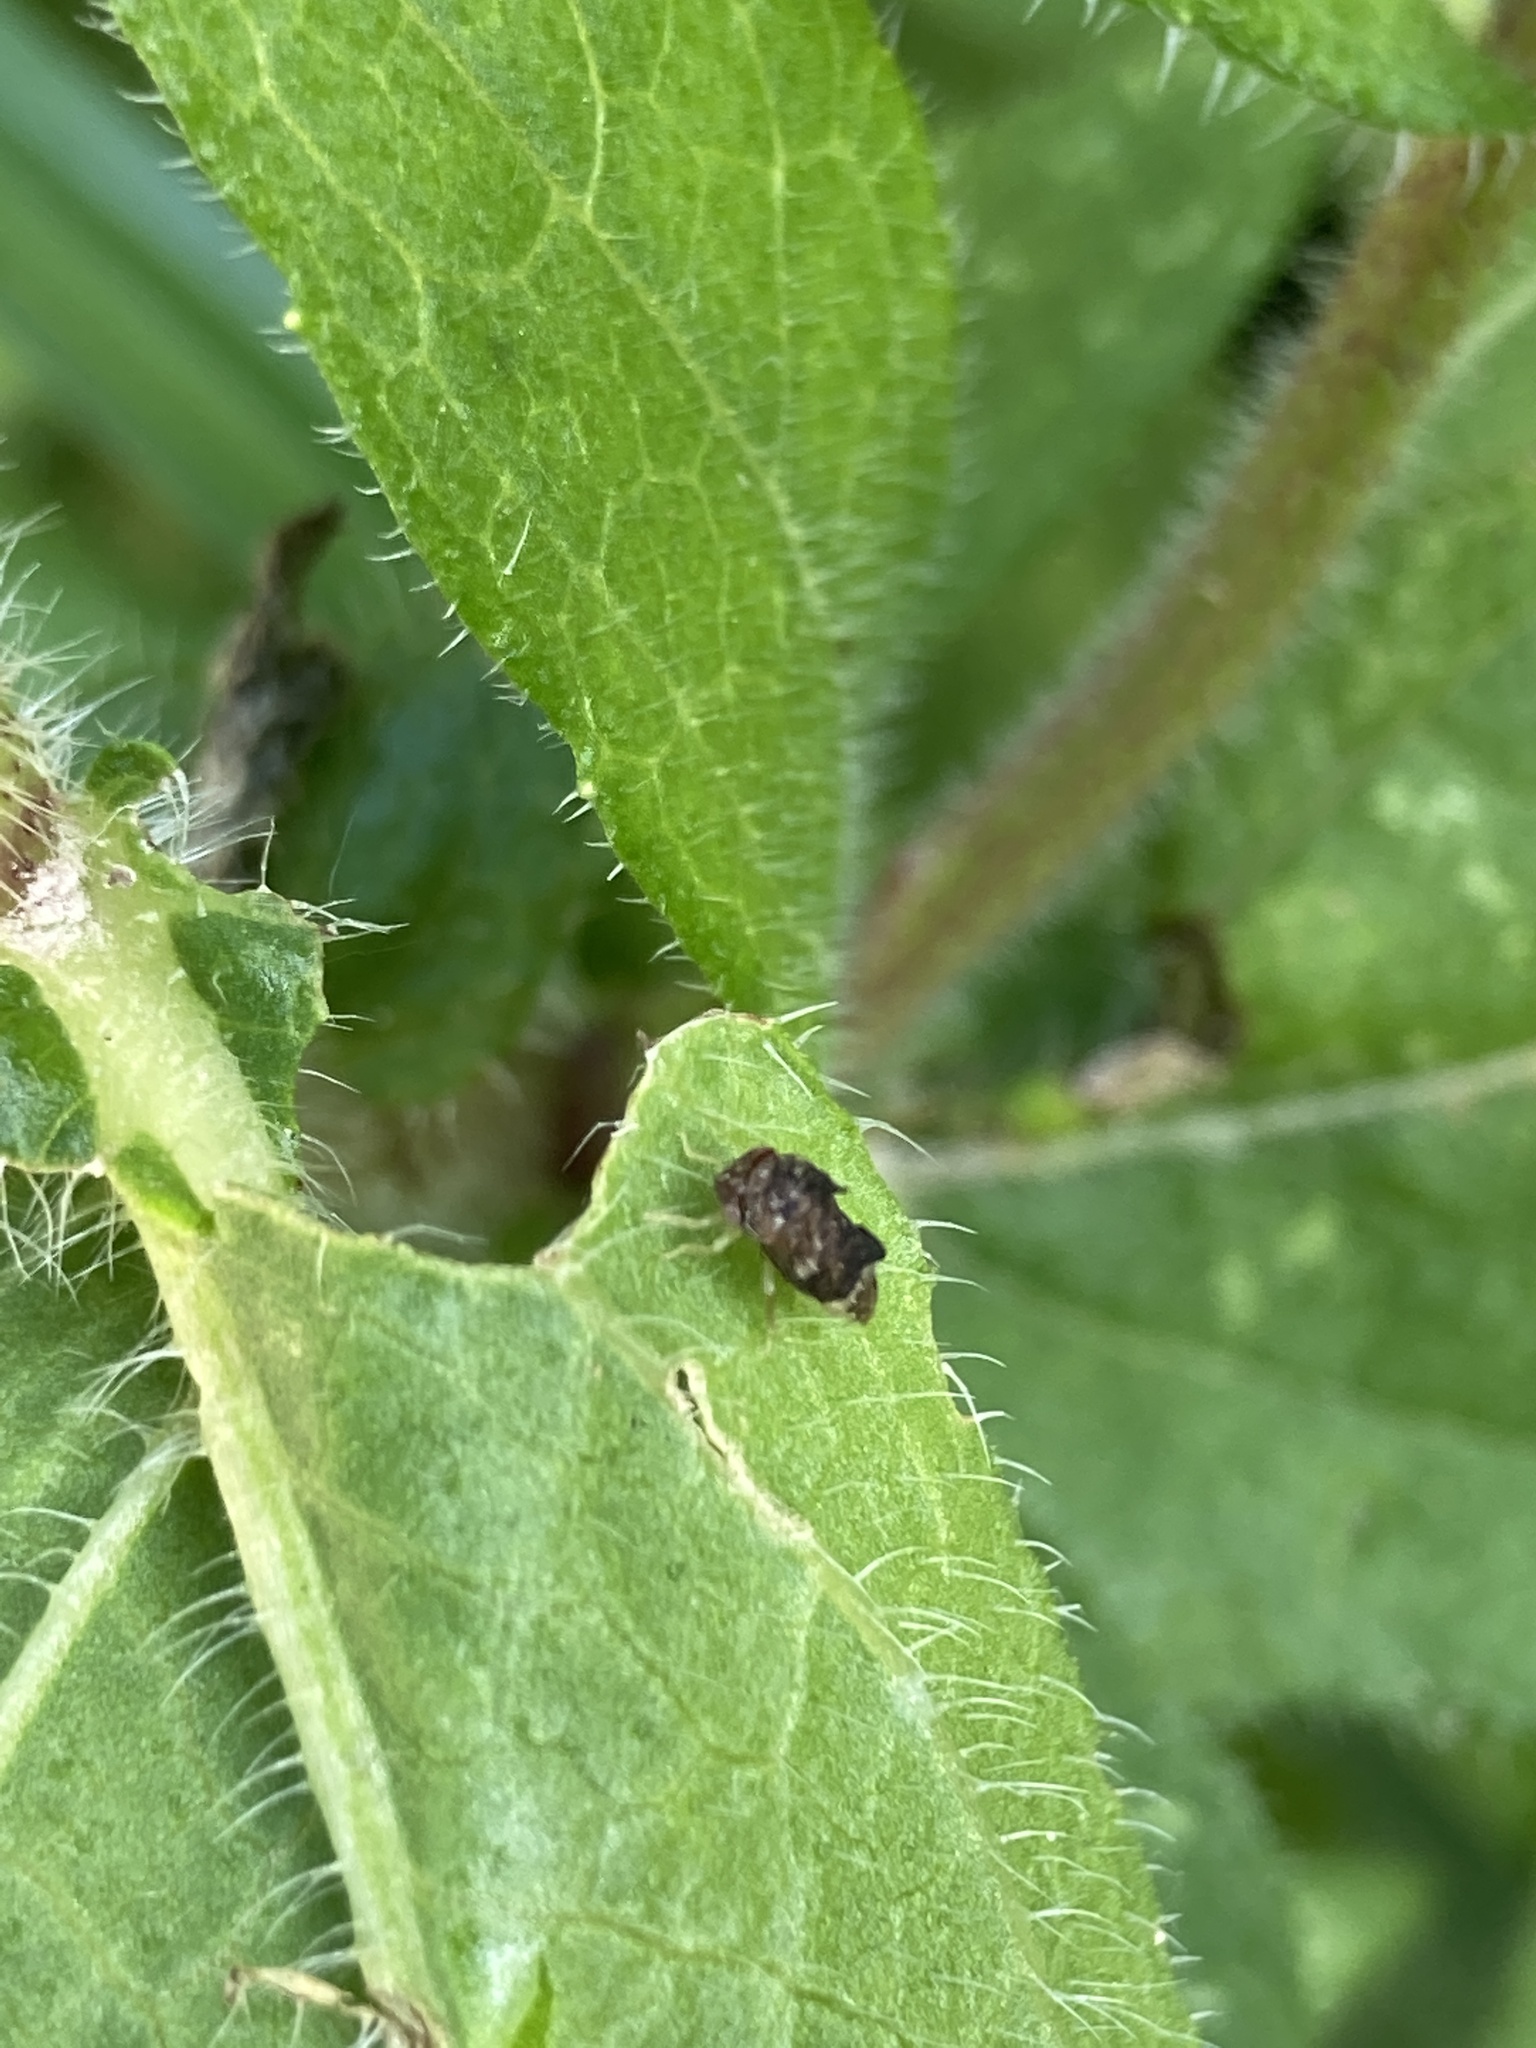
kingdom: Animalia
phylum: Arthropoda
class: Insecta
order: Hemiptera
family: Membracidae
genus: Entylia
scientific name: Entylia carinata
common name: Keeled treehopper
